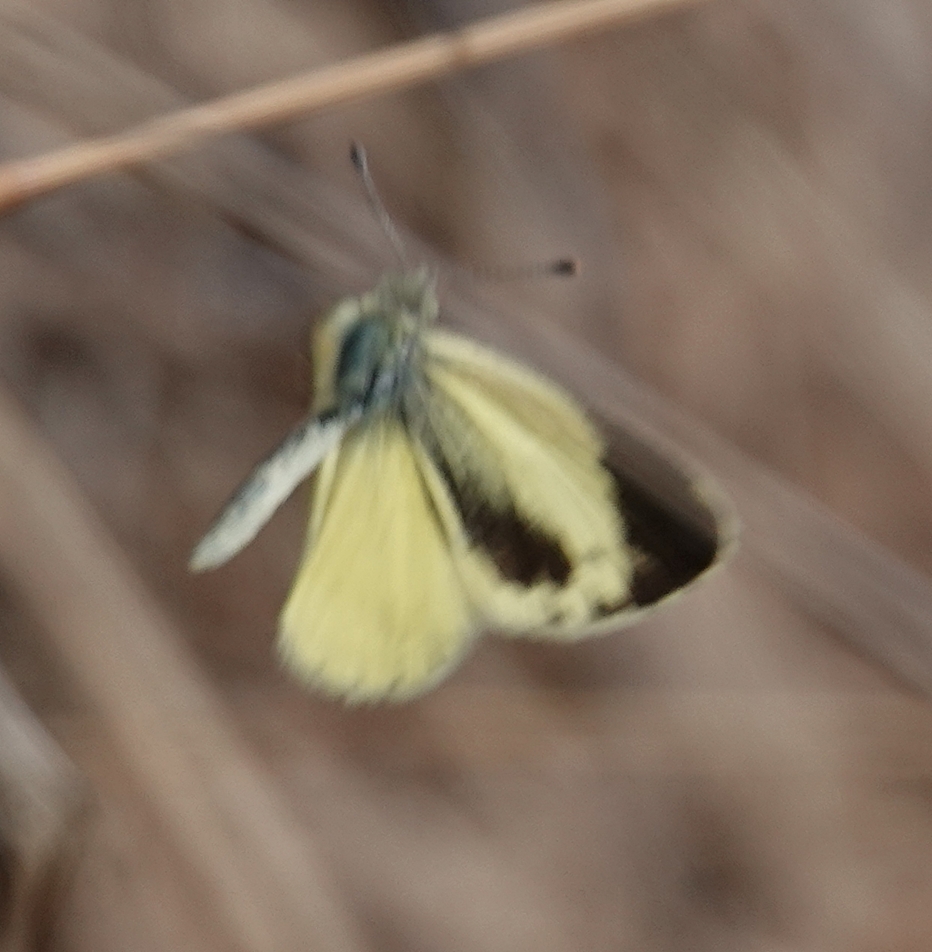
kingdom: Animalia
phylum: Arthropoda
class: Insecta
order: Lepidoptera
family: Pieridae
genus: Nathalis
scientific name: Nathalis iole
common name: Dainty sulphur
